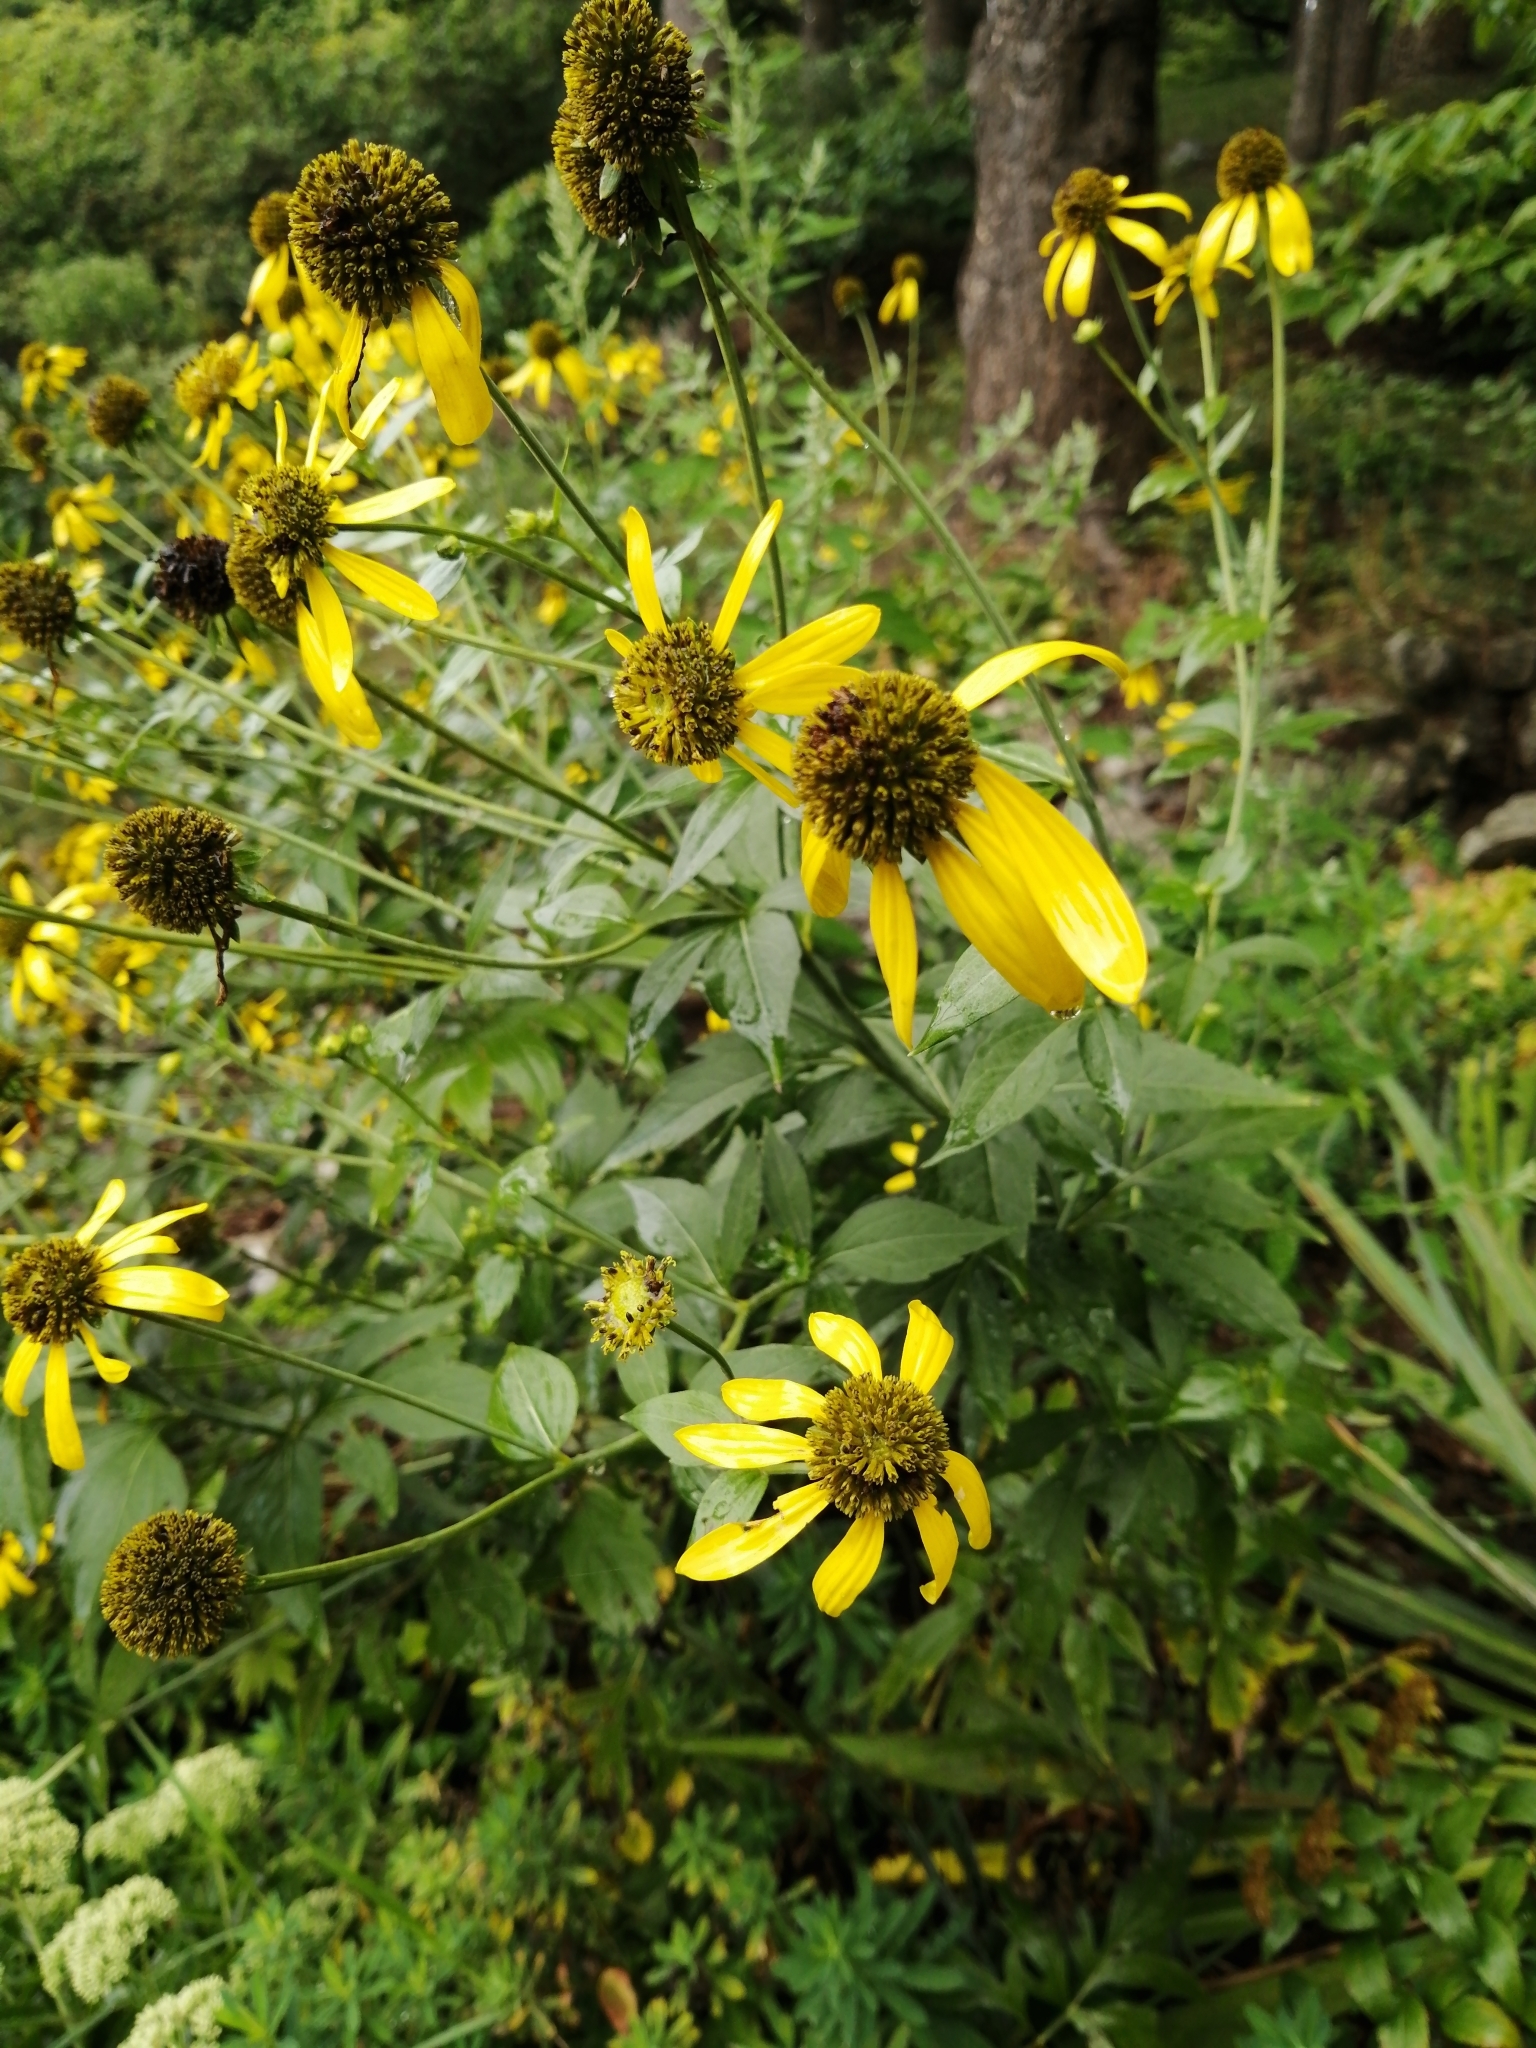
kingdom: Plantae
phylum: Tracheophyta
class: Magnoliopsida
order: Asterales
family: Asteraceae
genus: Rudbeckia
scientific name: Rudbeckia laciniata
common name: Coneflower
